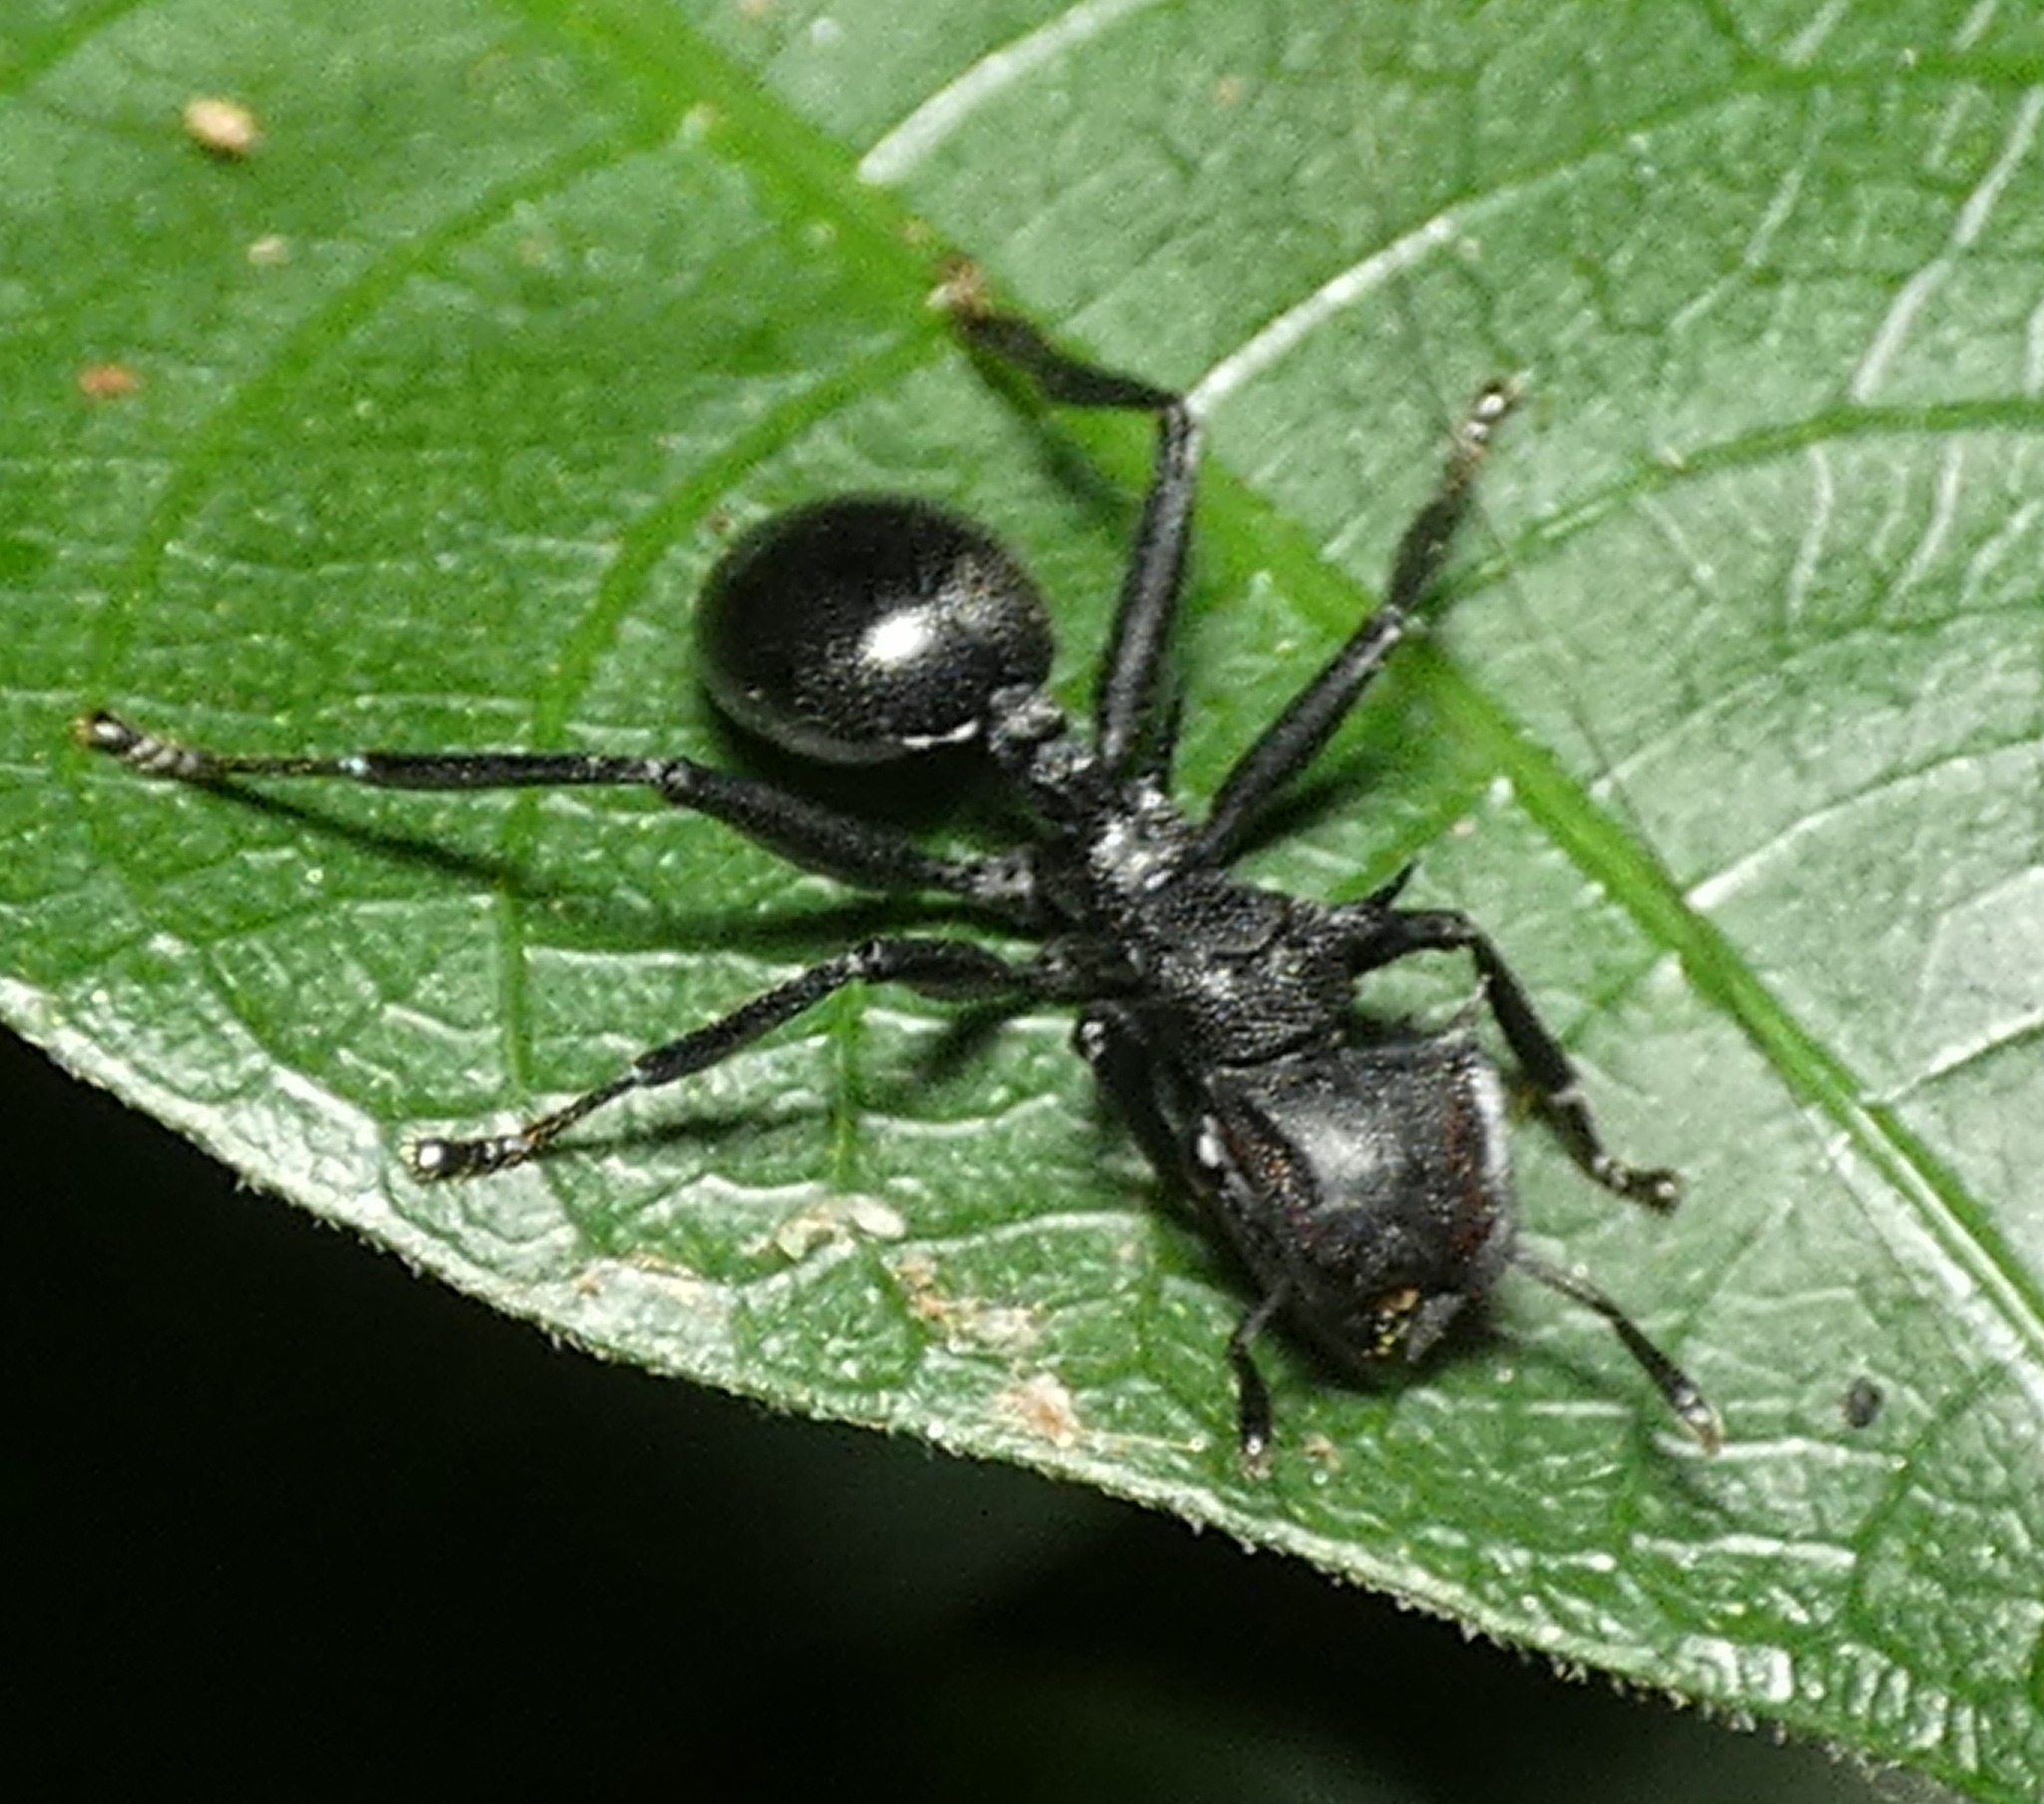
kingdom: Animalia
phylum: Arthropoda
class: Insecta
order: Hymenoptera
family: Formicidae
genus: Cephalotes
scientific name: Cephalotes atratus
